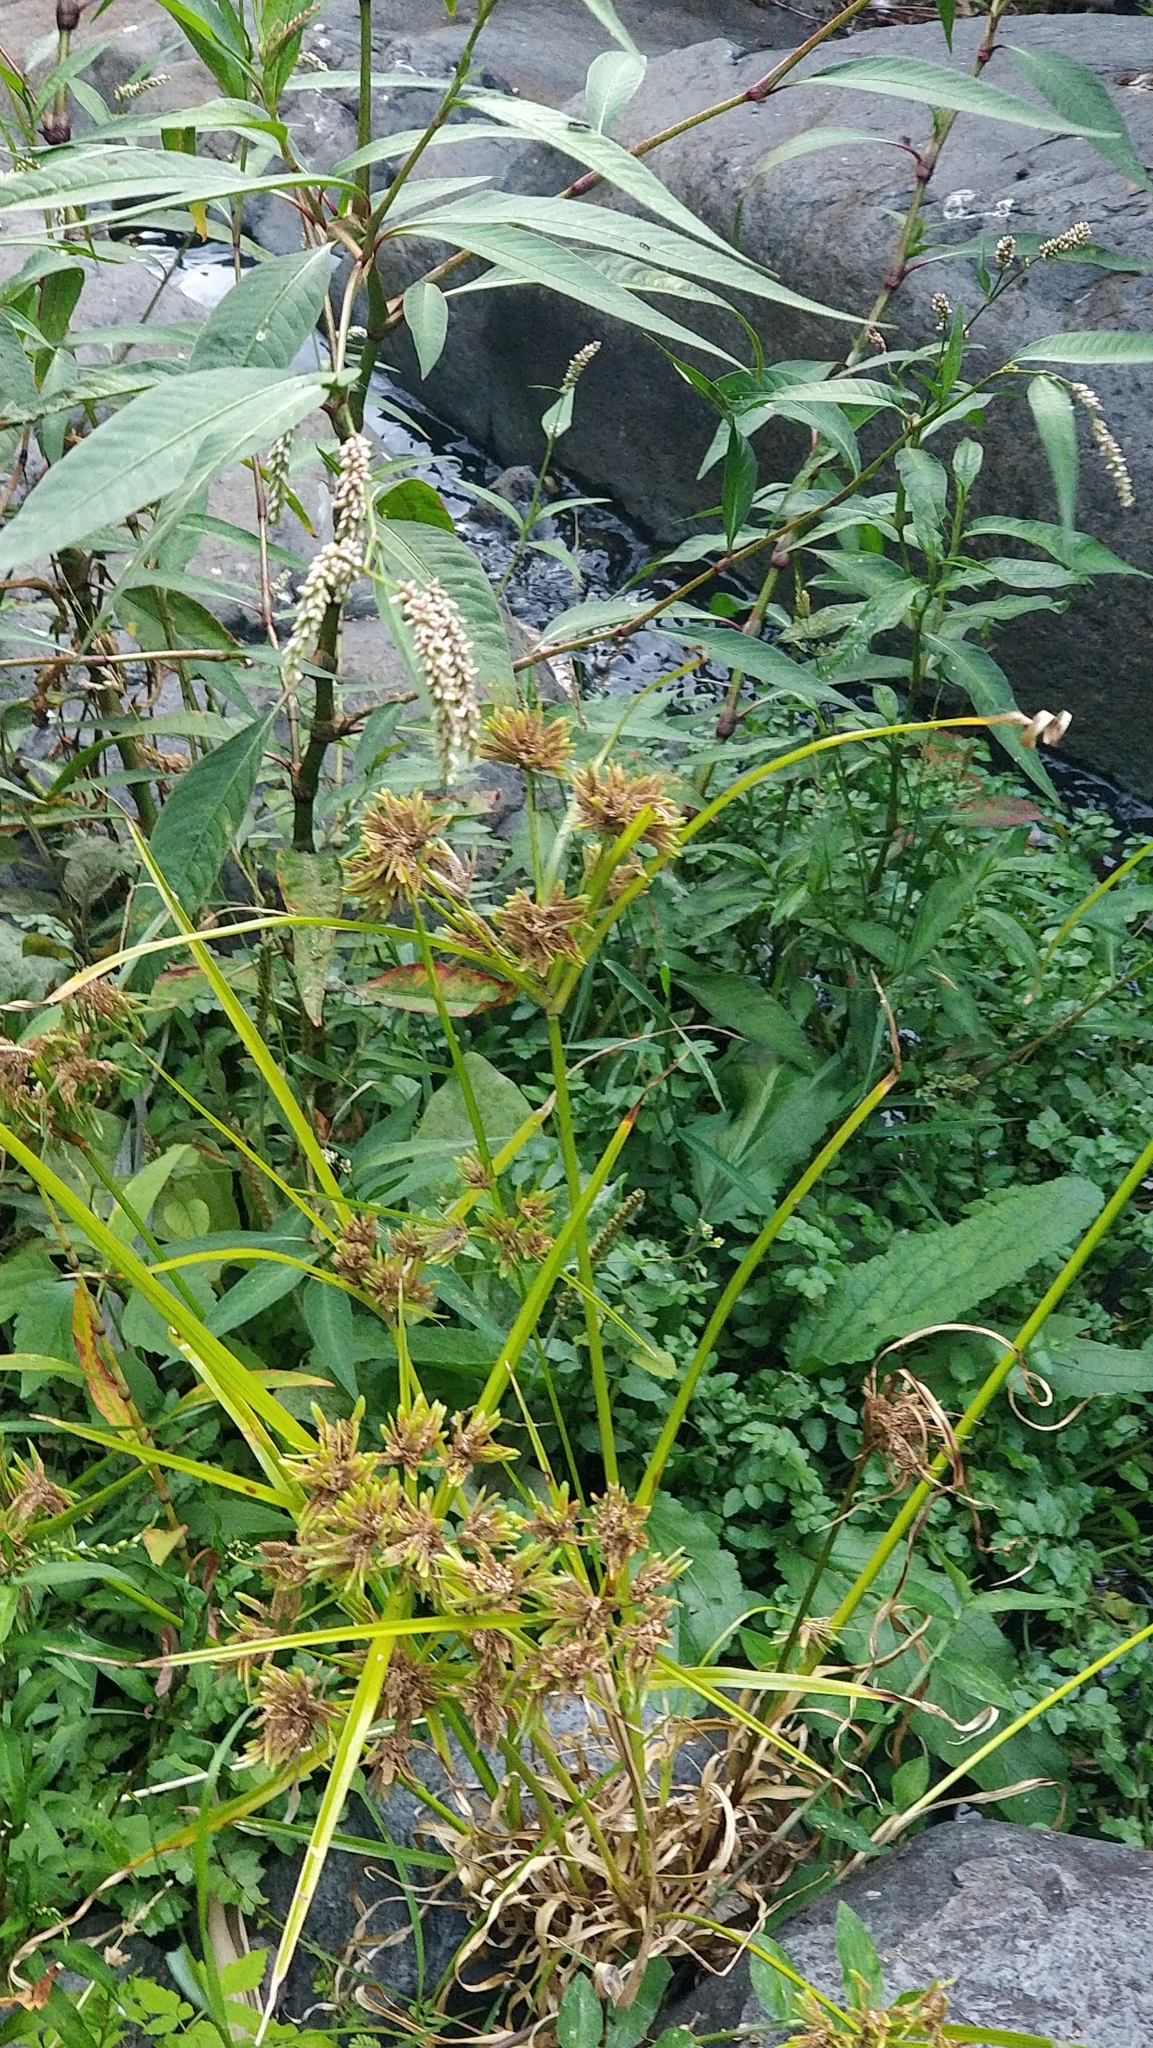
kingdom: Plantae
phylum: Tracheophyta
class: Liliopsida
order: Poales
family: Cyperaceae
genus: Cyperus
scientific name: Cyperus eragrostis
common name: Tall flatsedge
